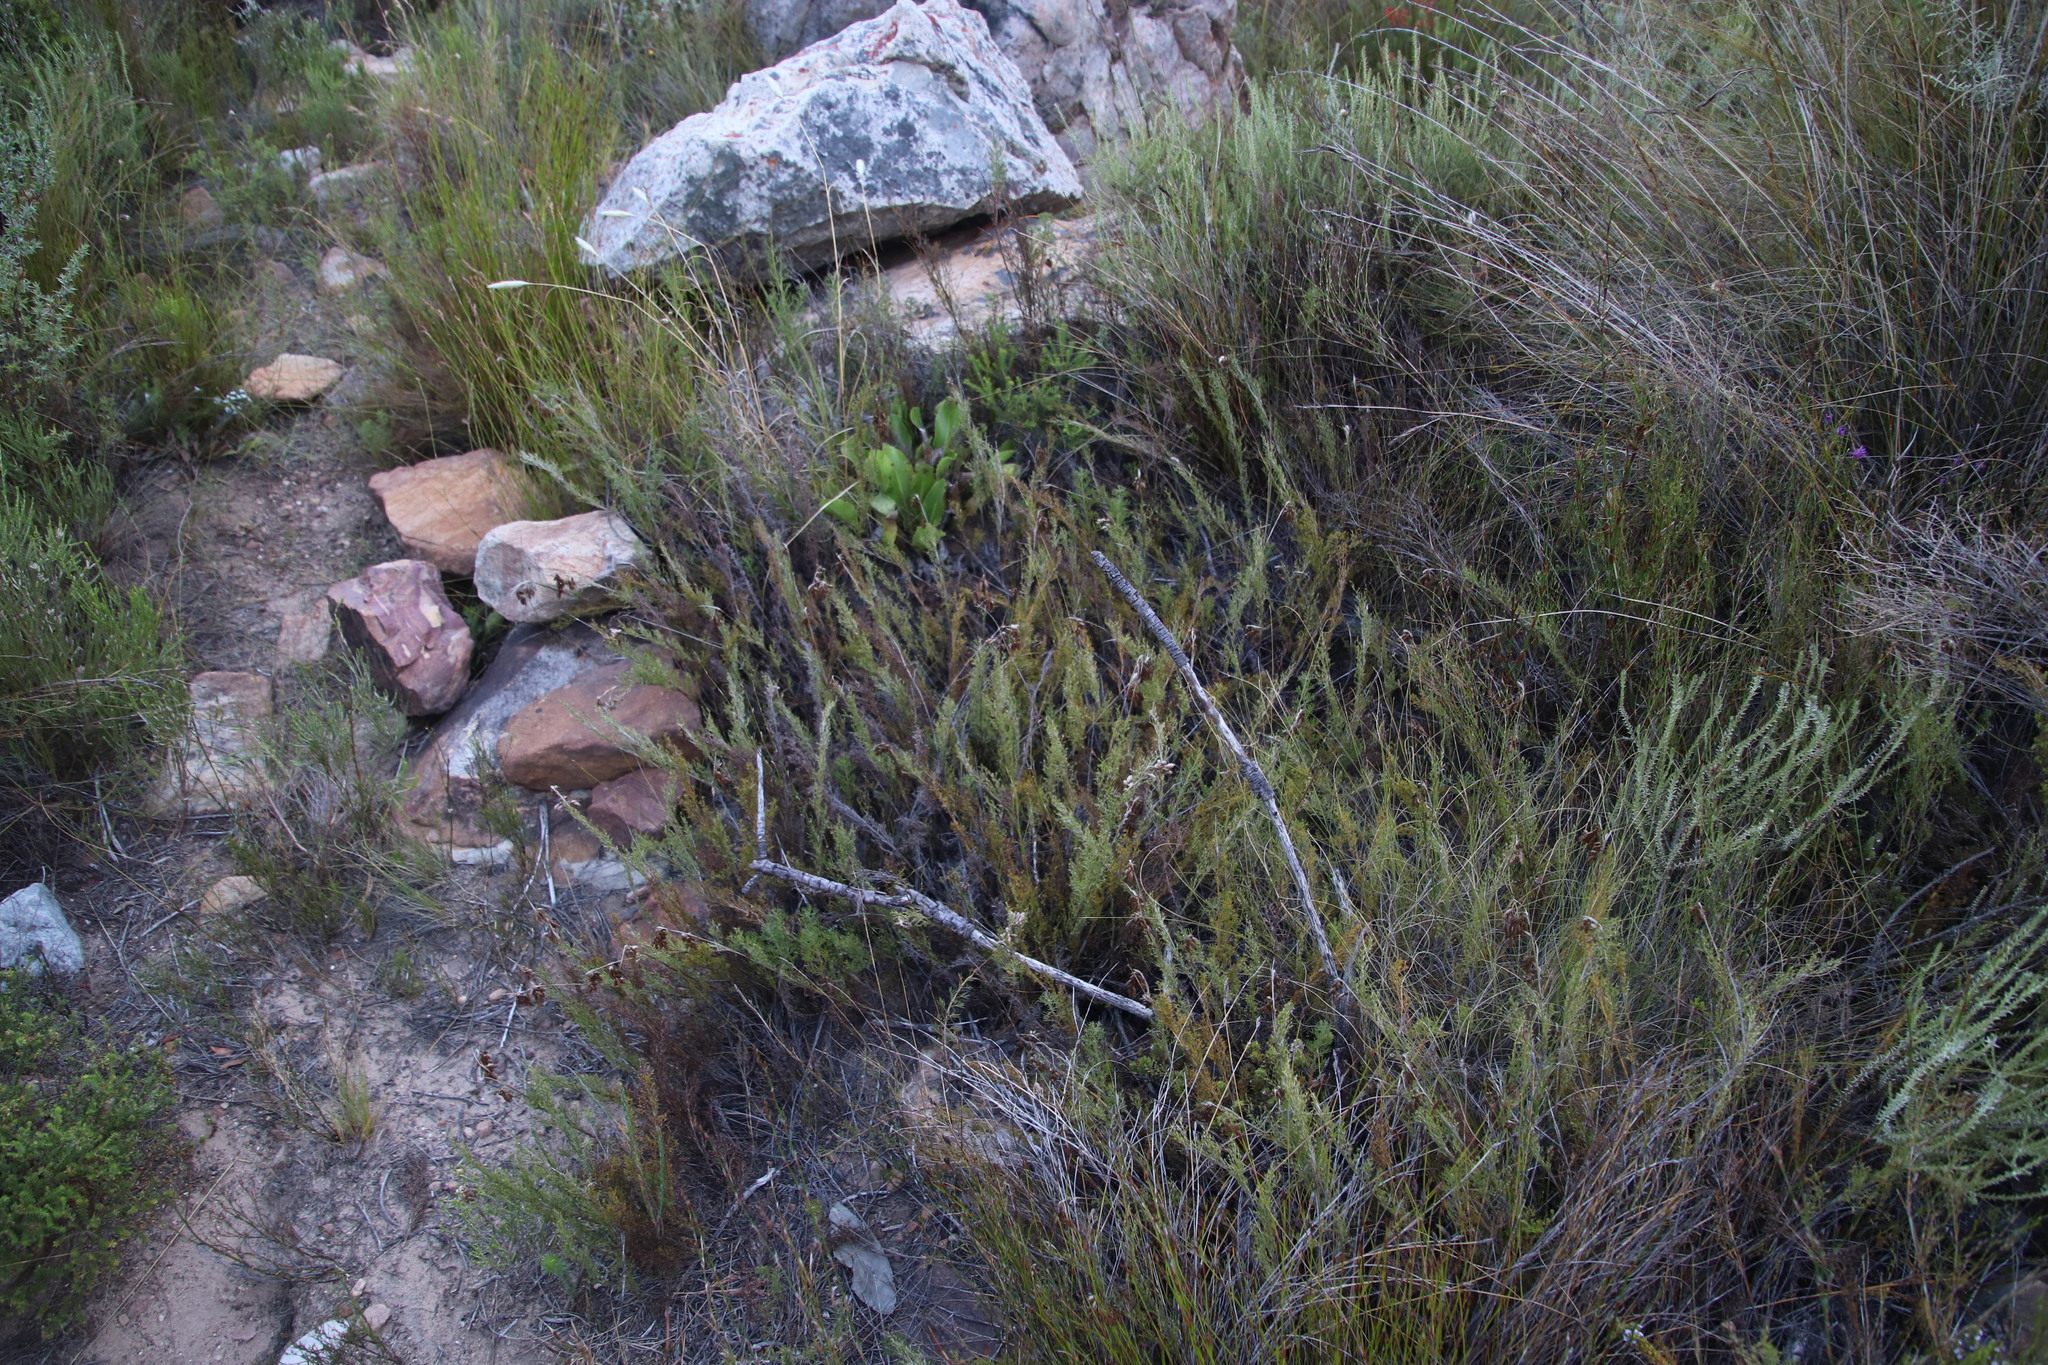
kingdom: Plantae
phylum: Tracheophyta
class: Liliopsida
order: Poales
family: Restionaceae
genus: Thamnochortus
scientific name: Thamnochortus fruticosus
